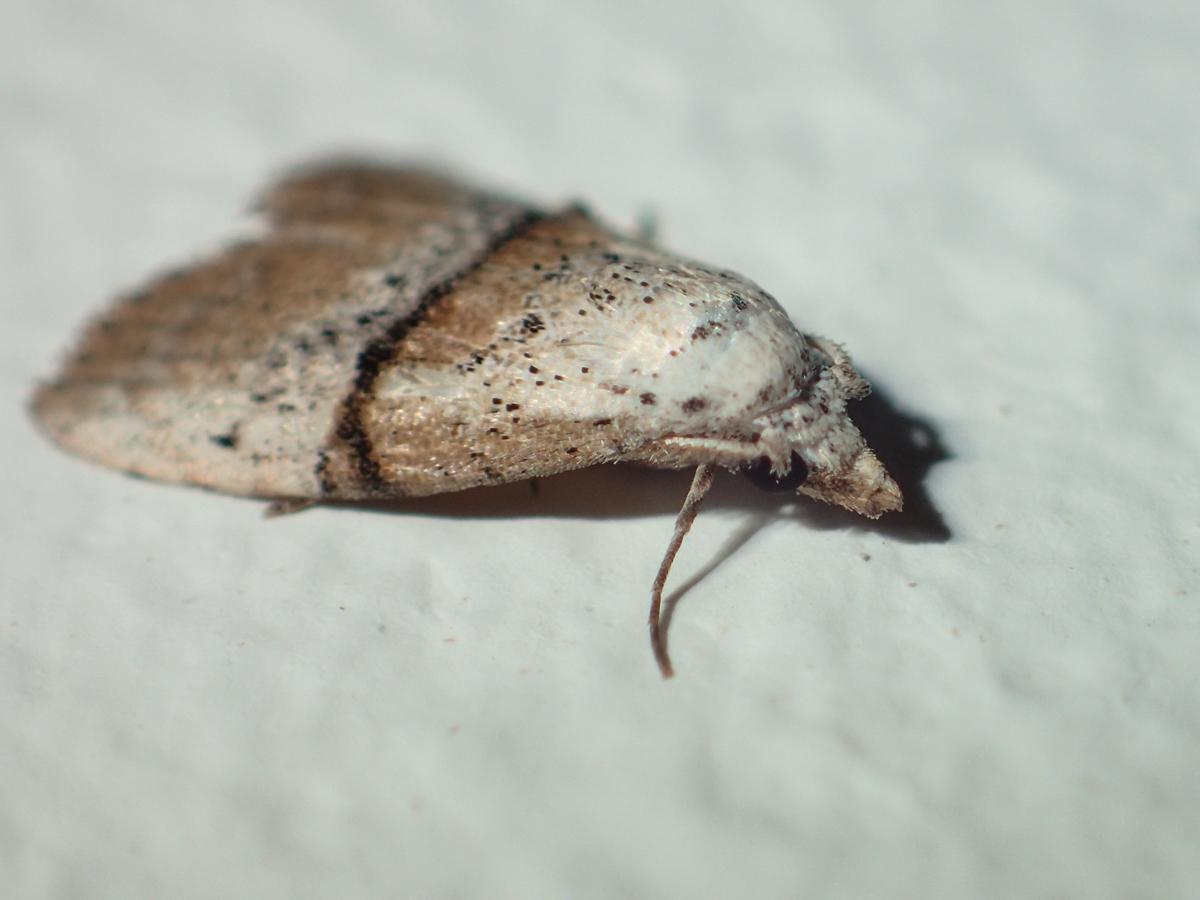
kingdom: Animalia
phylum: Arthropoda
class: Insecta
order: Lepidoptera
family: Nolidae
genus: Manoba
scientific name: Manoba fasciatus
